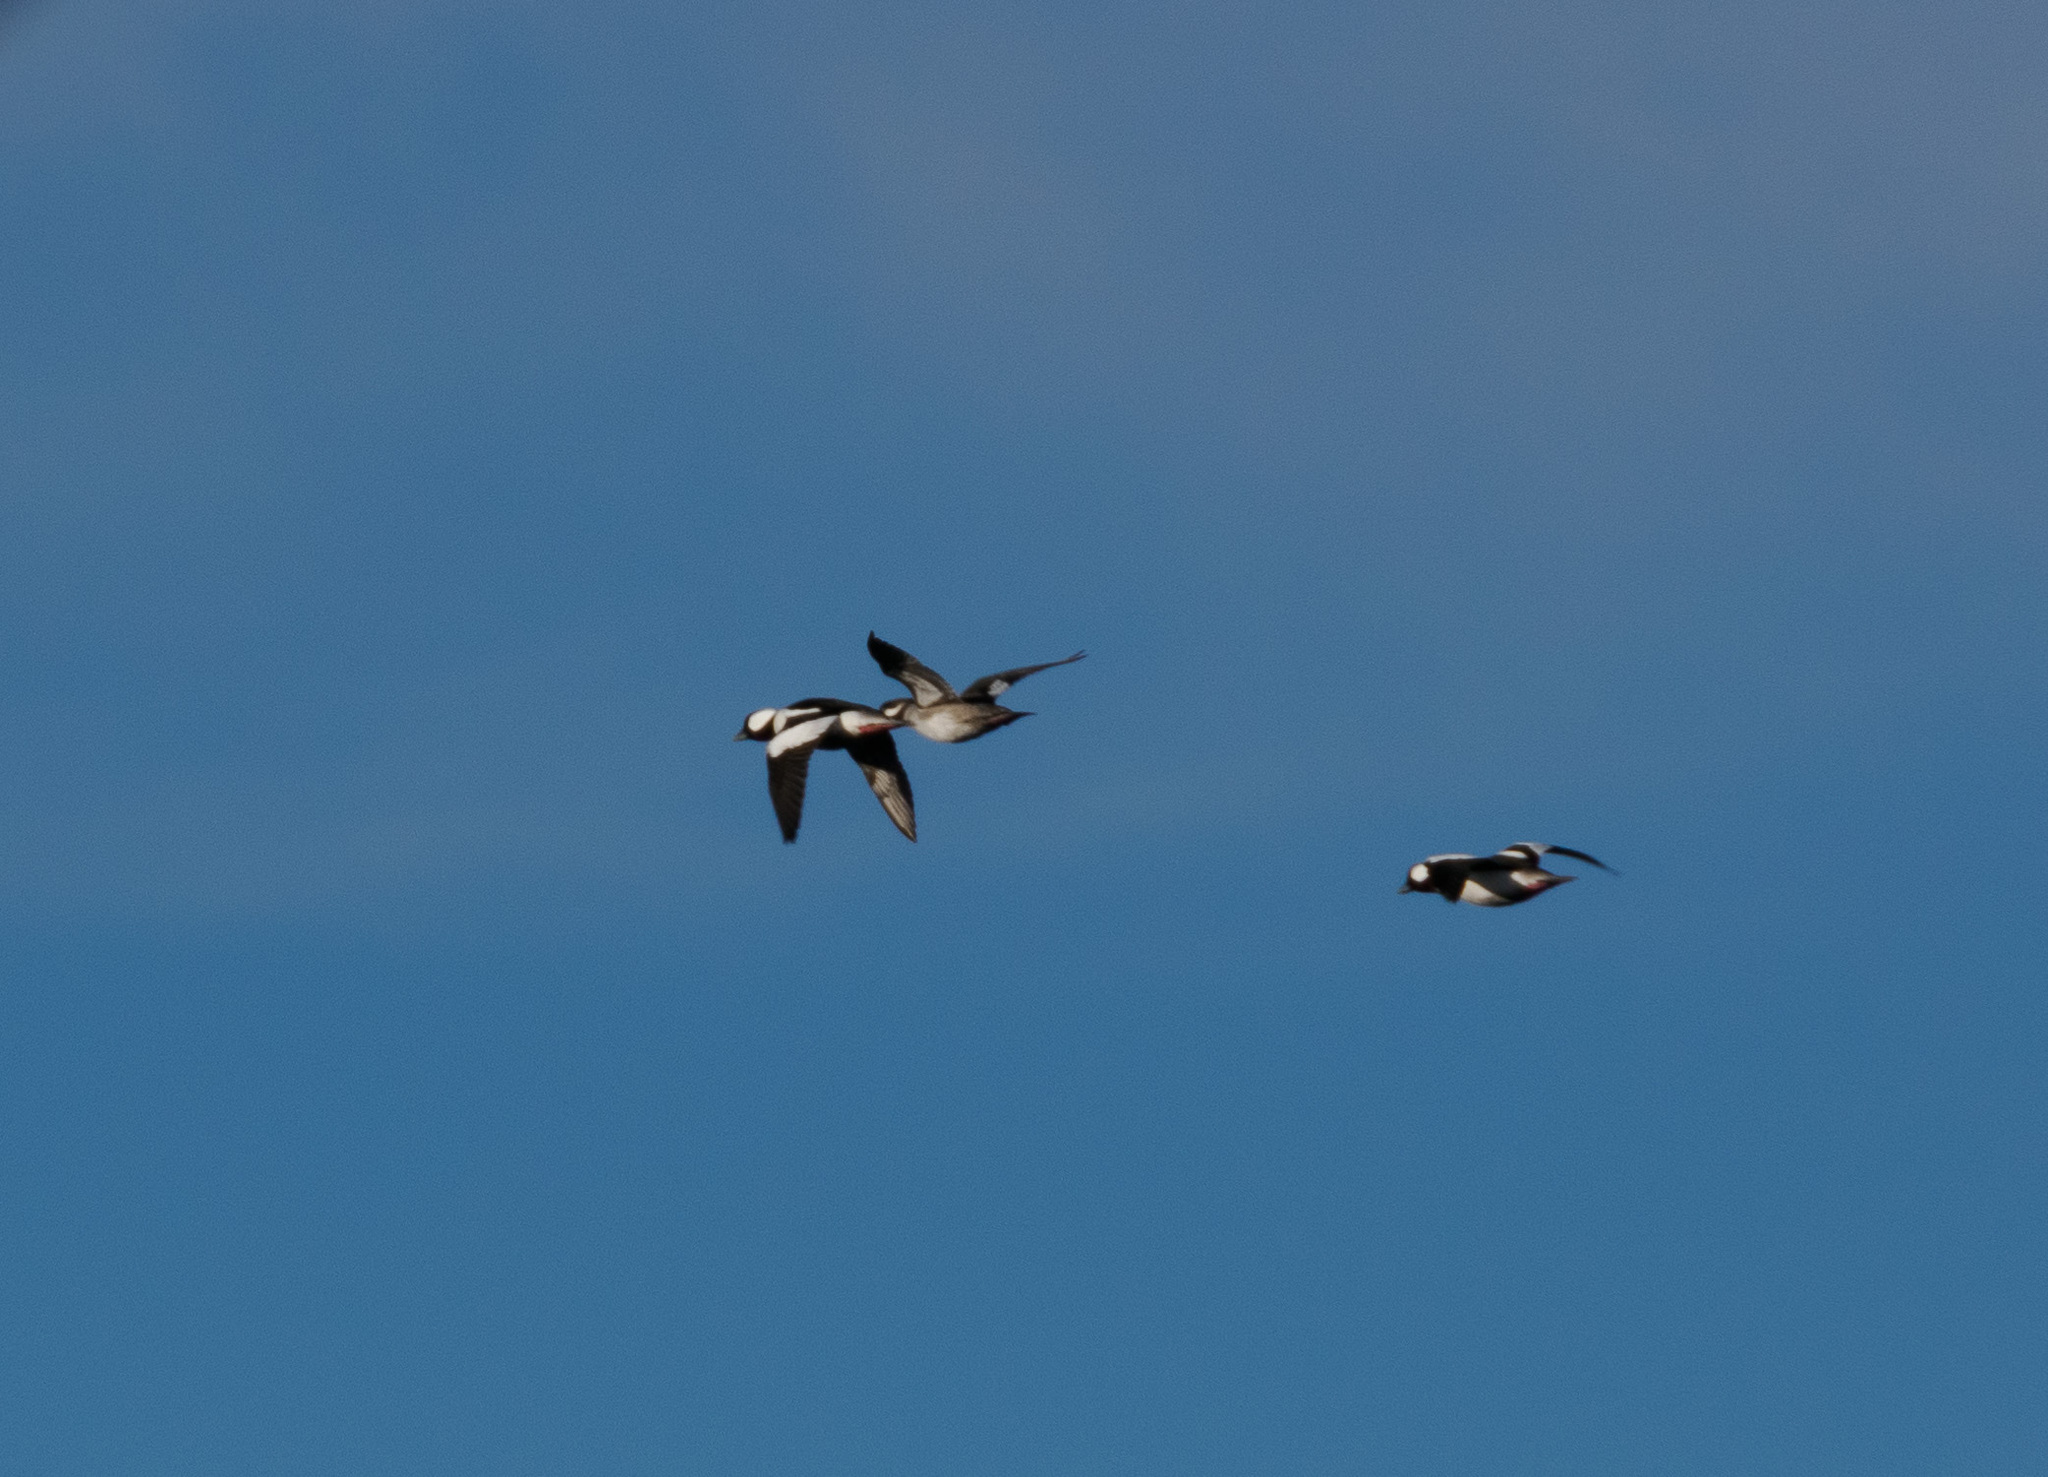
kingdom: Animalia
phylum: Chordata
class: Aves
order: Anseriformes
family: Anatidae
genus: Bucephala
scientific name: Bucephala albeola
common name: Bufflehead
